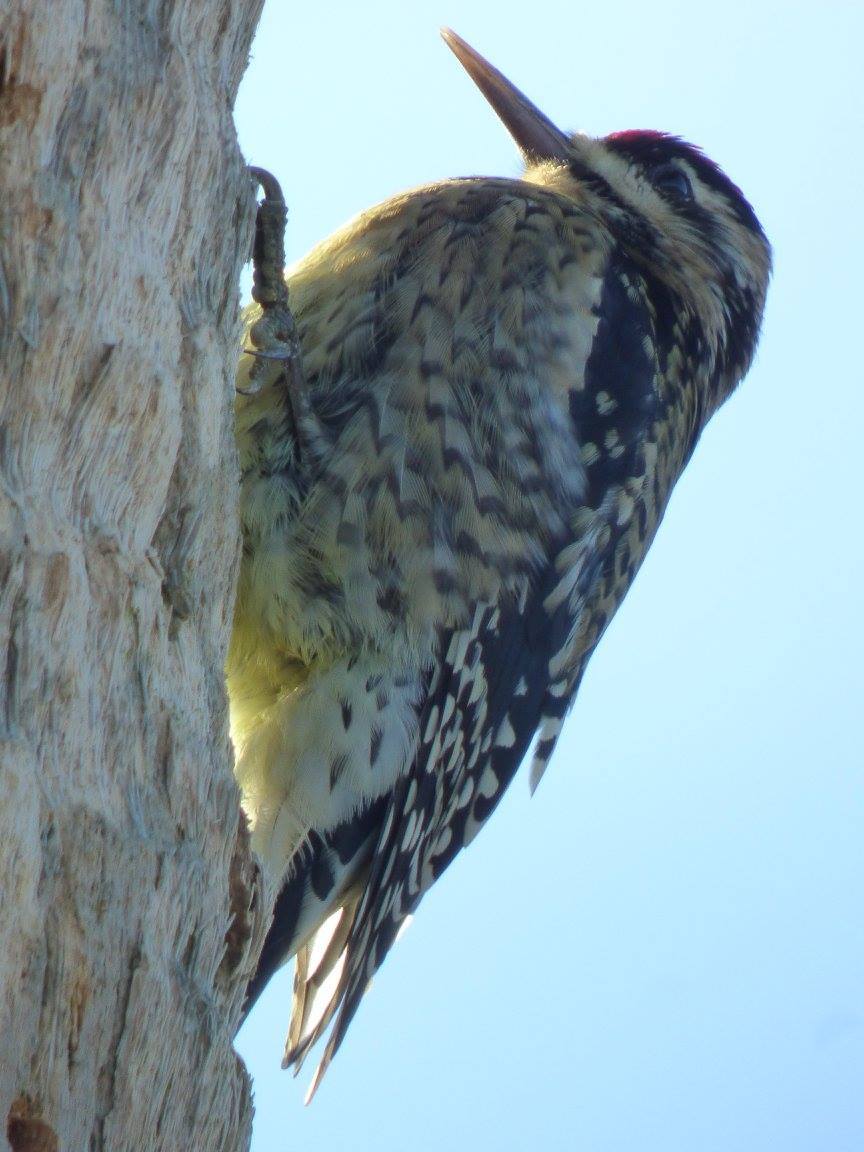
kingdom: Animalia
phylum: Chordata
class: Aves
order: Piciformes
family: Picidae
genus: Sphyrapicus
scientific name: Sphyrapicus varius
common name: Yellow-bellied sapsucker
